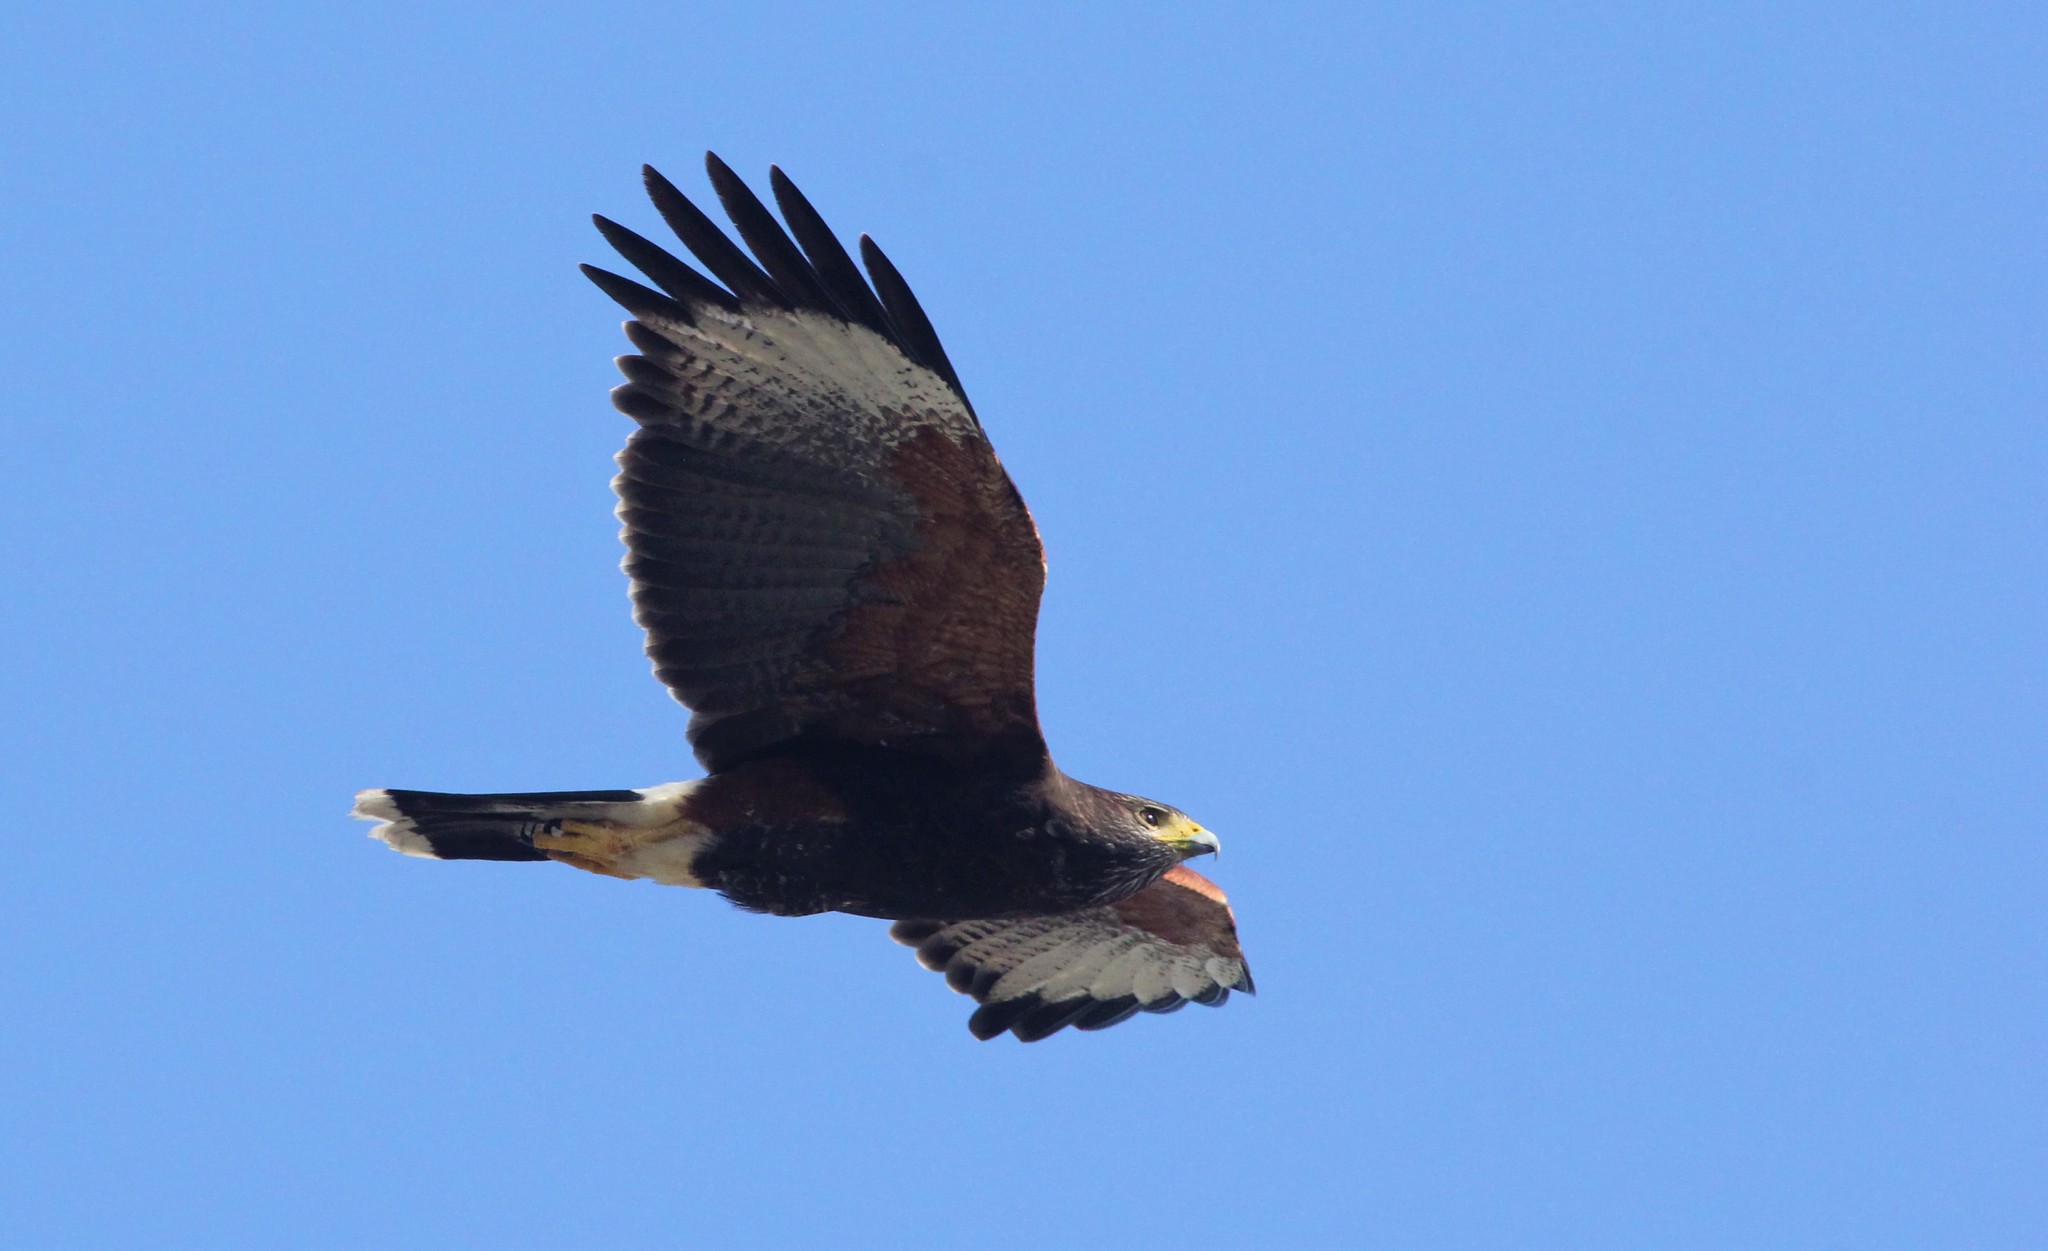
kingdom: Animalia
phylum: Chordata
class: Aves
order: Accipitriformes
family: Accipitridae
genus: Parabuteo
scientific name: Parabuteo unicinctus
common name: Harris's hawk
